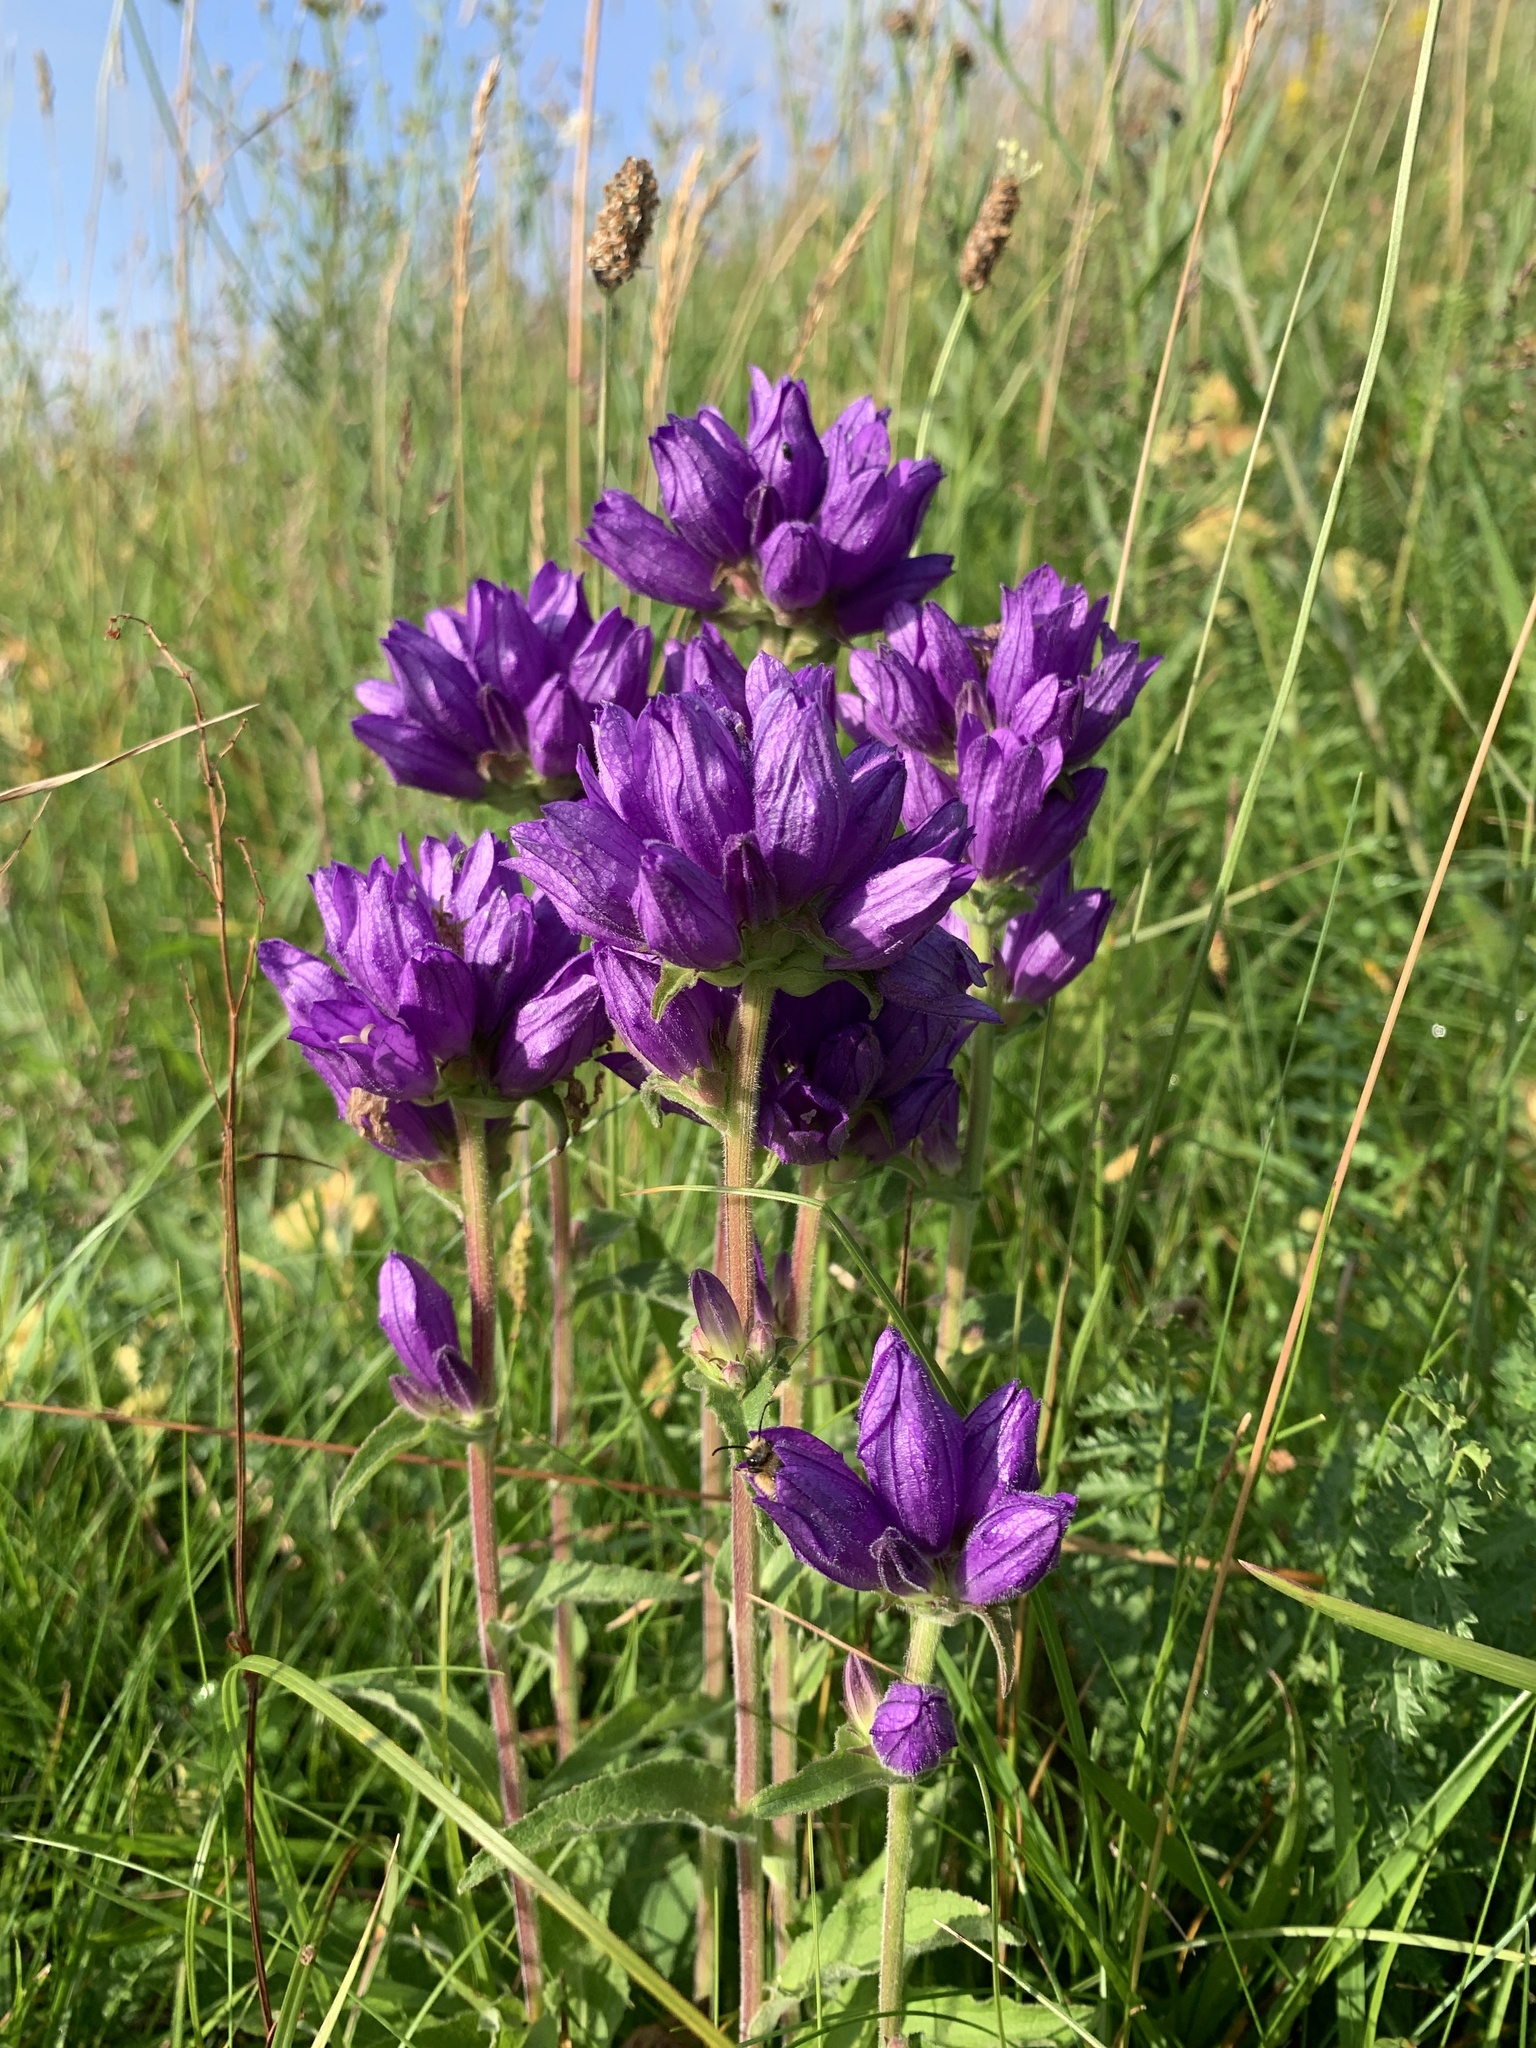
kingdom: Plantae
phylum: Tracheophyta
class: Magnoliopsida
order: Asterales
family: Campanulaceae
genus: Campanula
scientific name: Campanula glomerata
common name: Clustered bellflower
